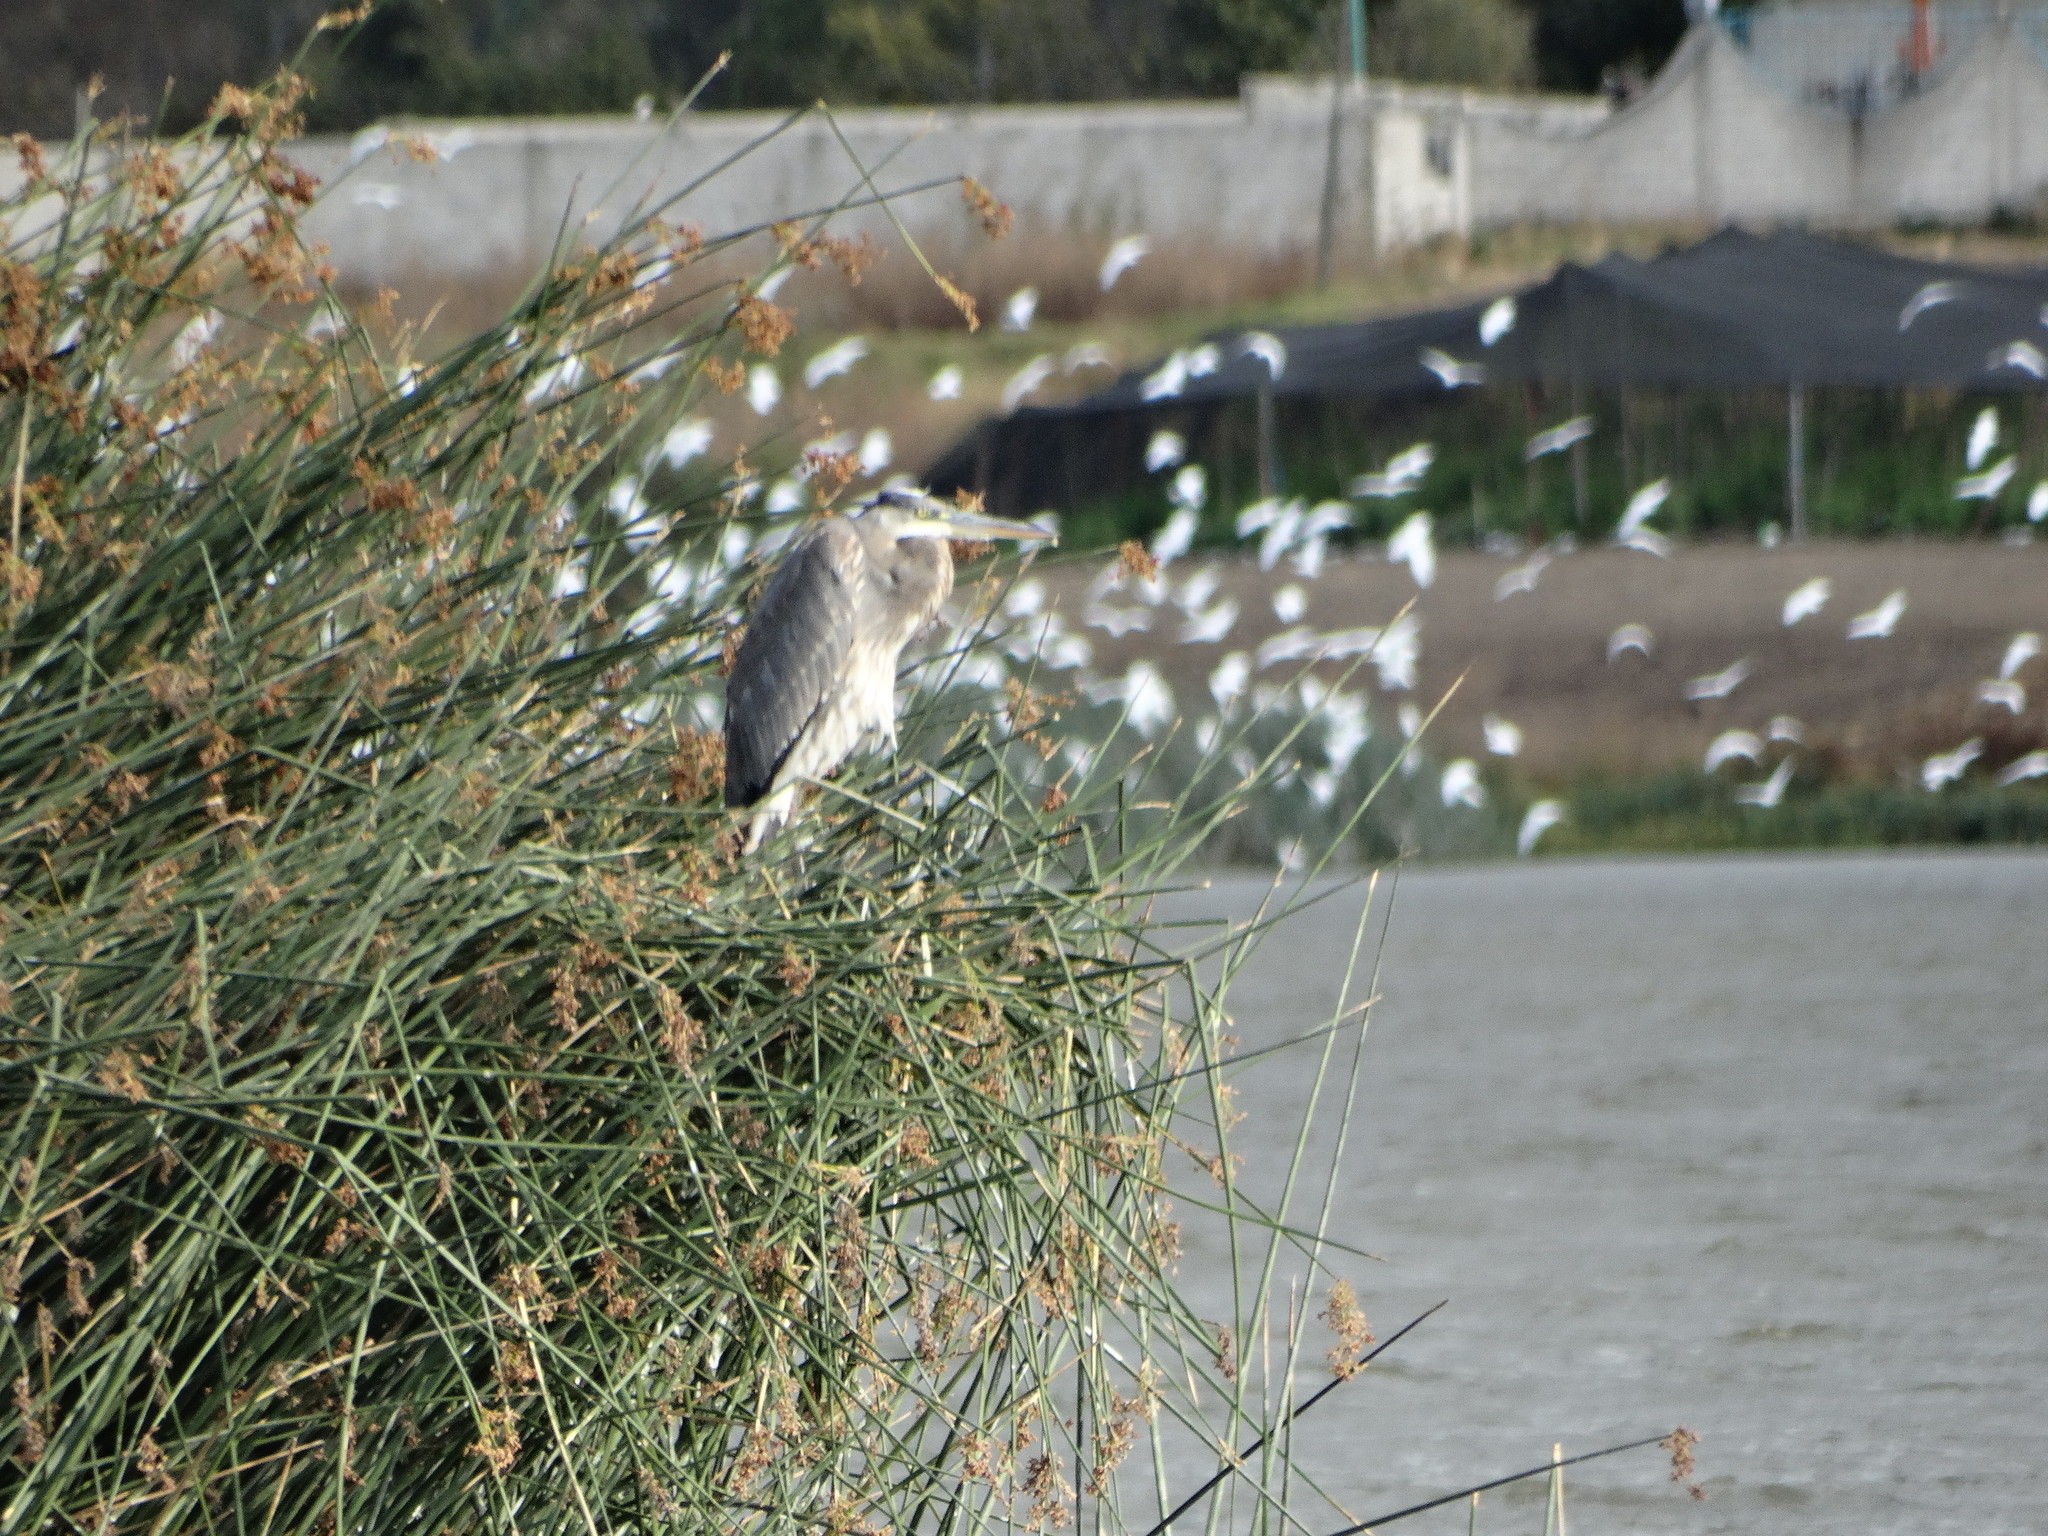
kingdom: Animalia
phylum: Chordata
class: Aves
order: Pelecaniformes
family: Ardeidae
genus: Ardea
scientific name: Ardea herodias
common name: Great blue heron
